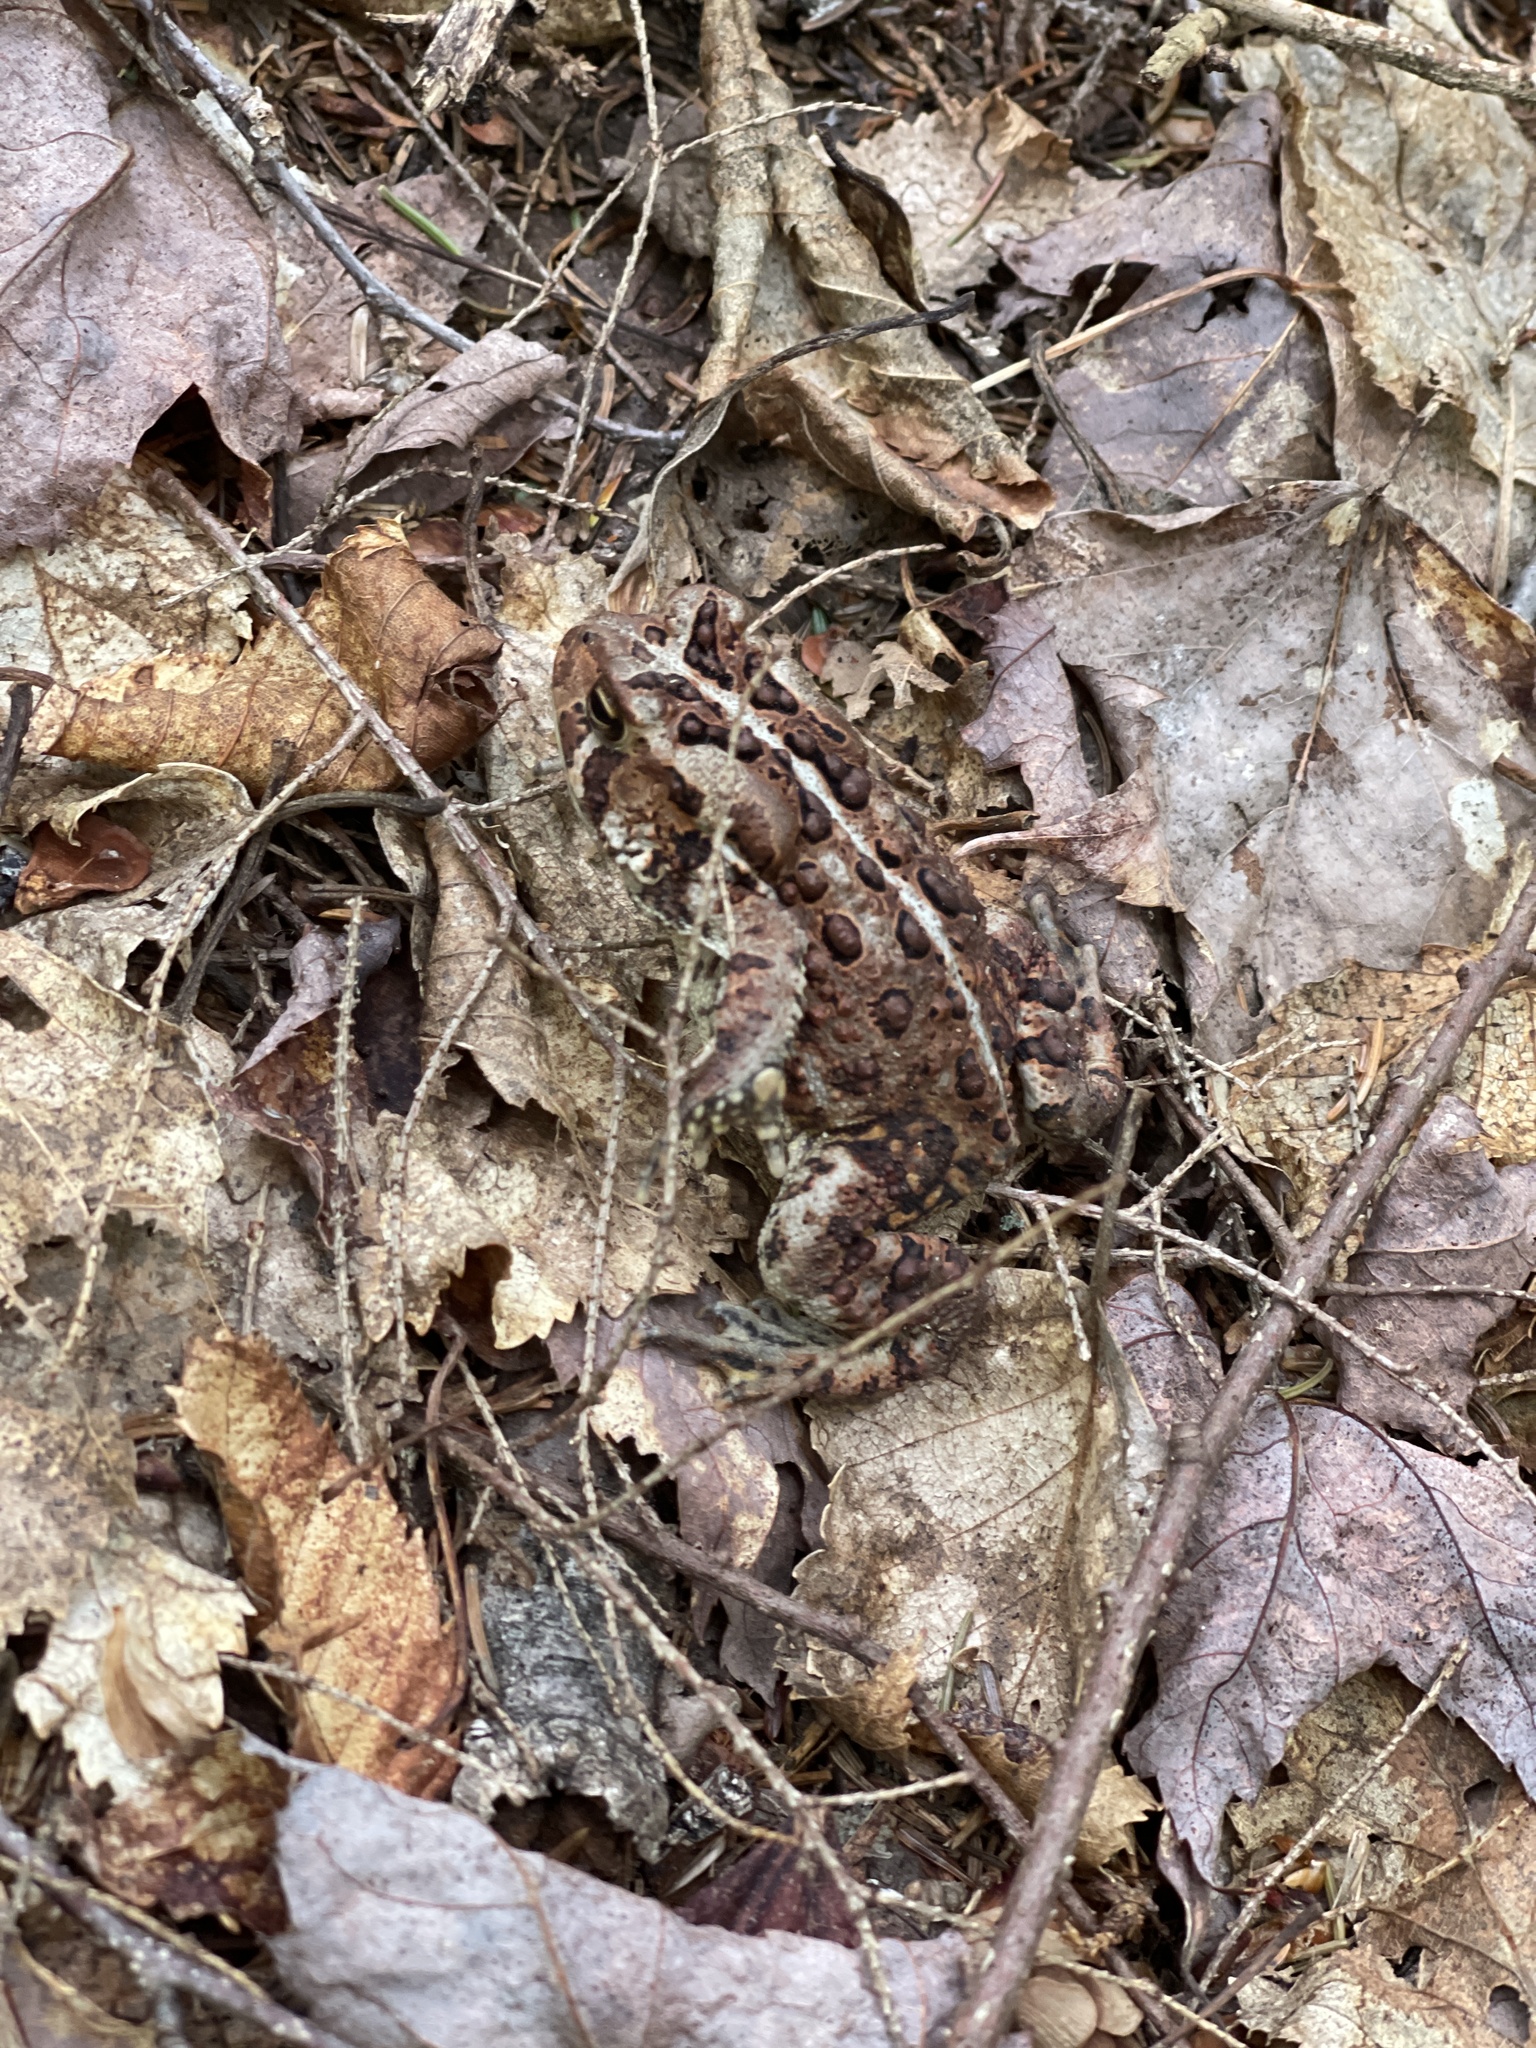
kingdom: Animalia
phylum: Chordata
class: Amphibia
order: Anura
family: Bufonidae
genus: Anaxyrus
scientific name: Anaxyrus americanus
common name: American toad
